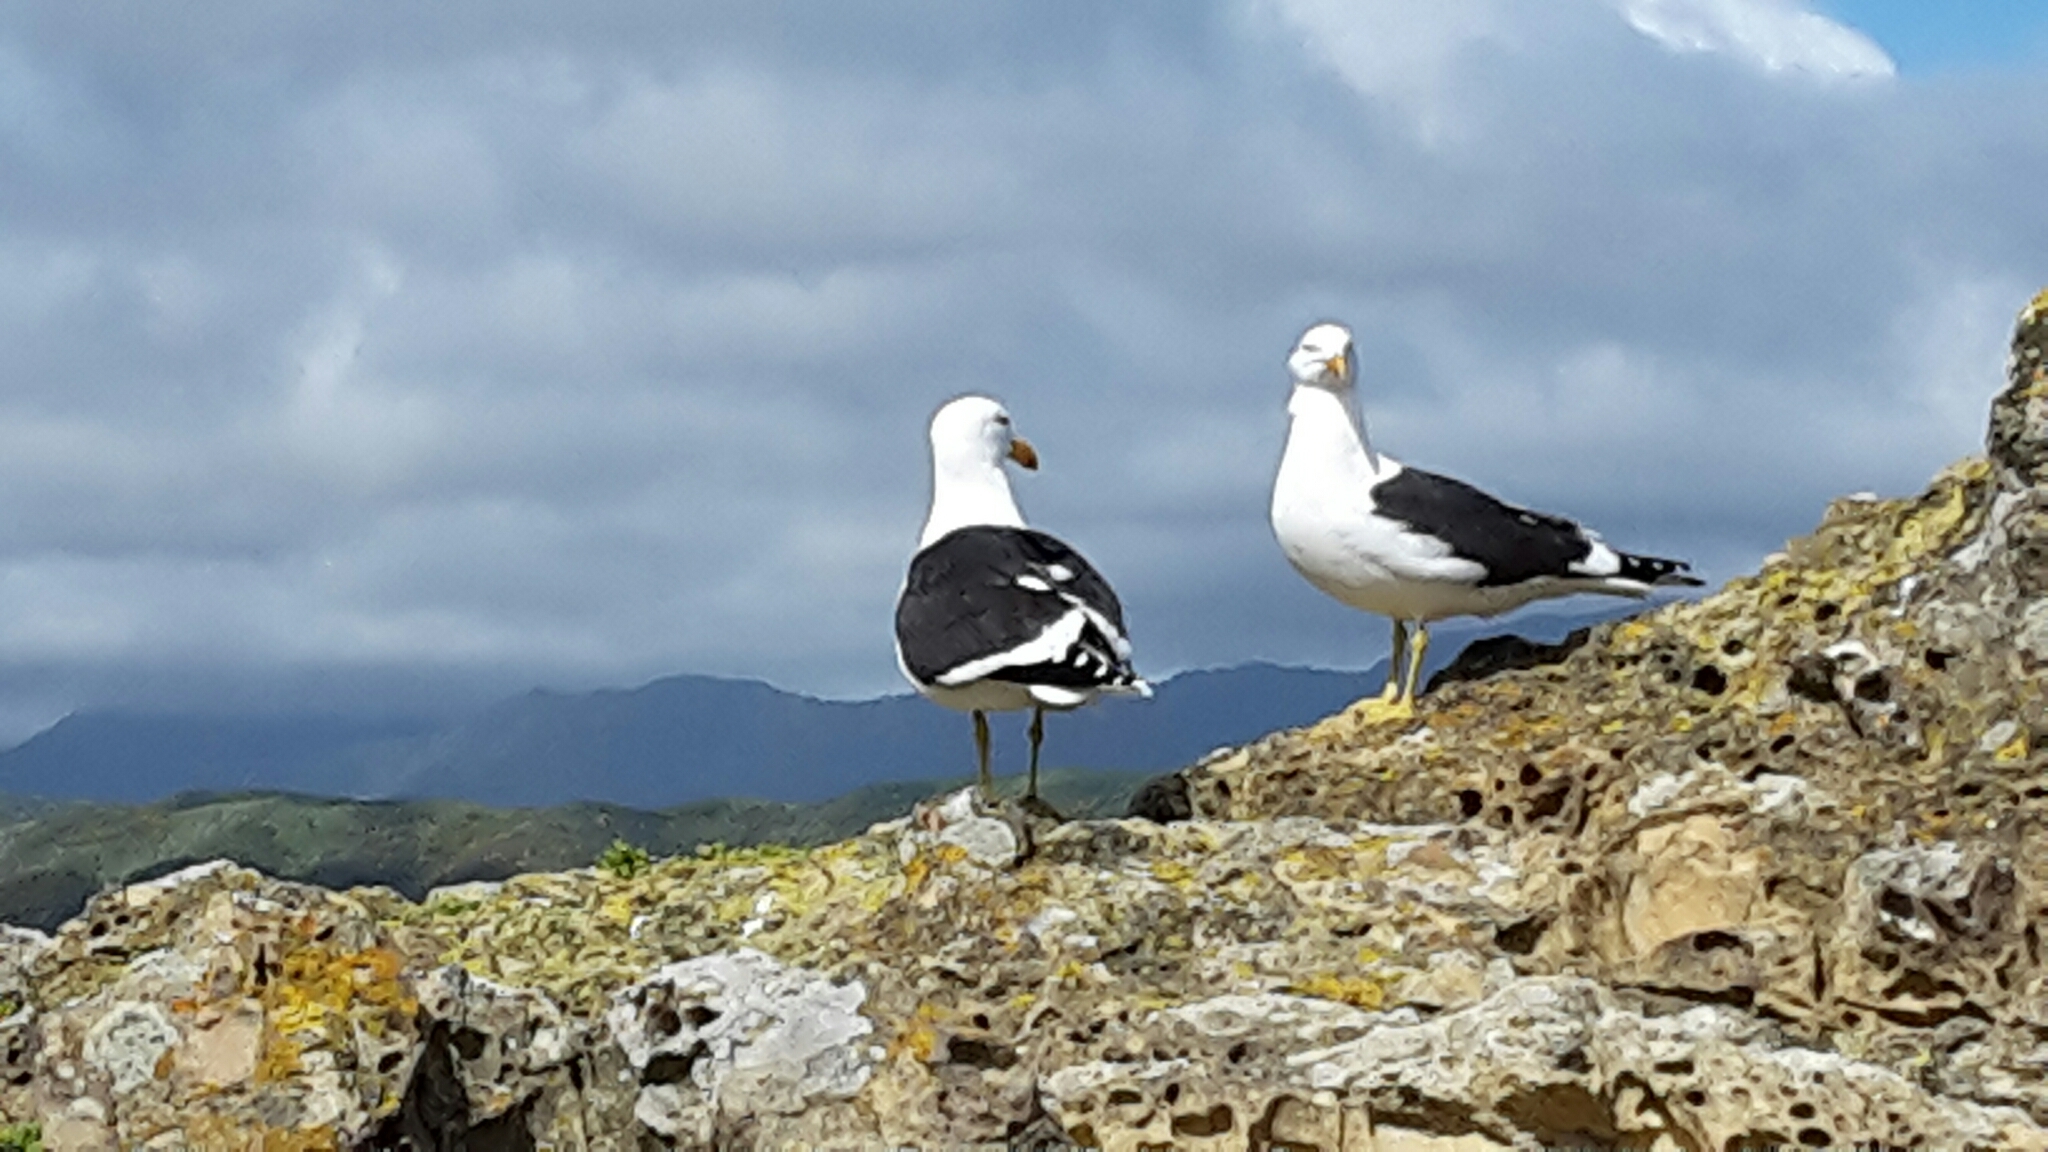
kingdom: Animalia
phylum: Chordata
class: Aves
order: Charadriiformes
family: Laridae
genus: Larus
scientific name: Larus dominicanus
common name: Kelp gull
